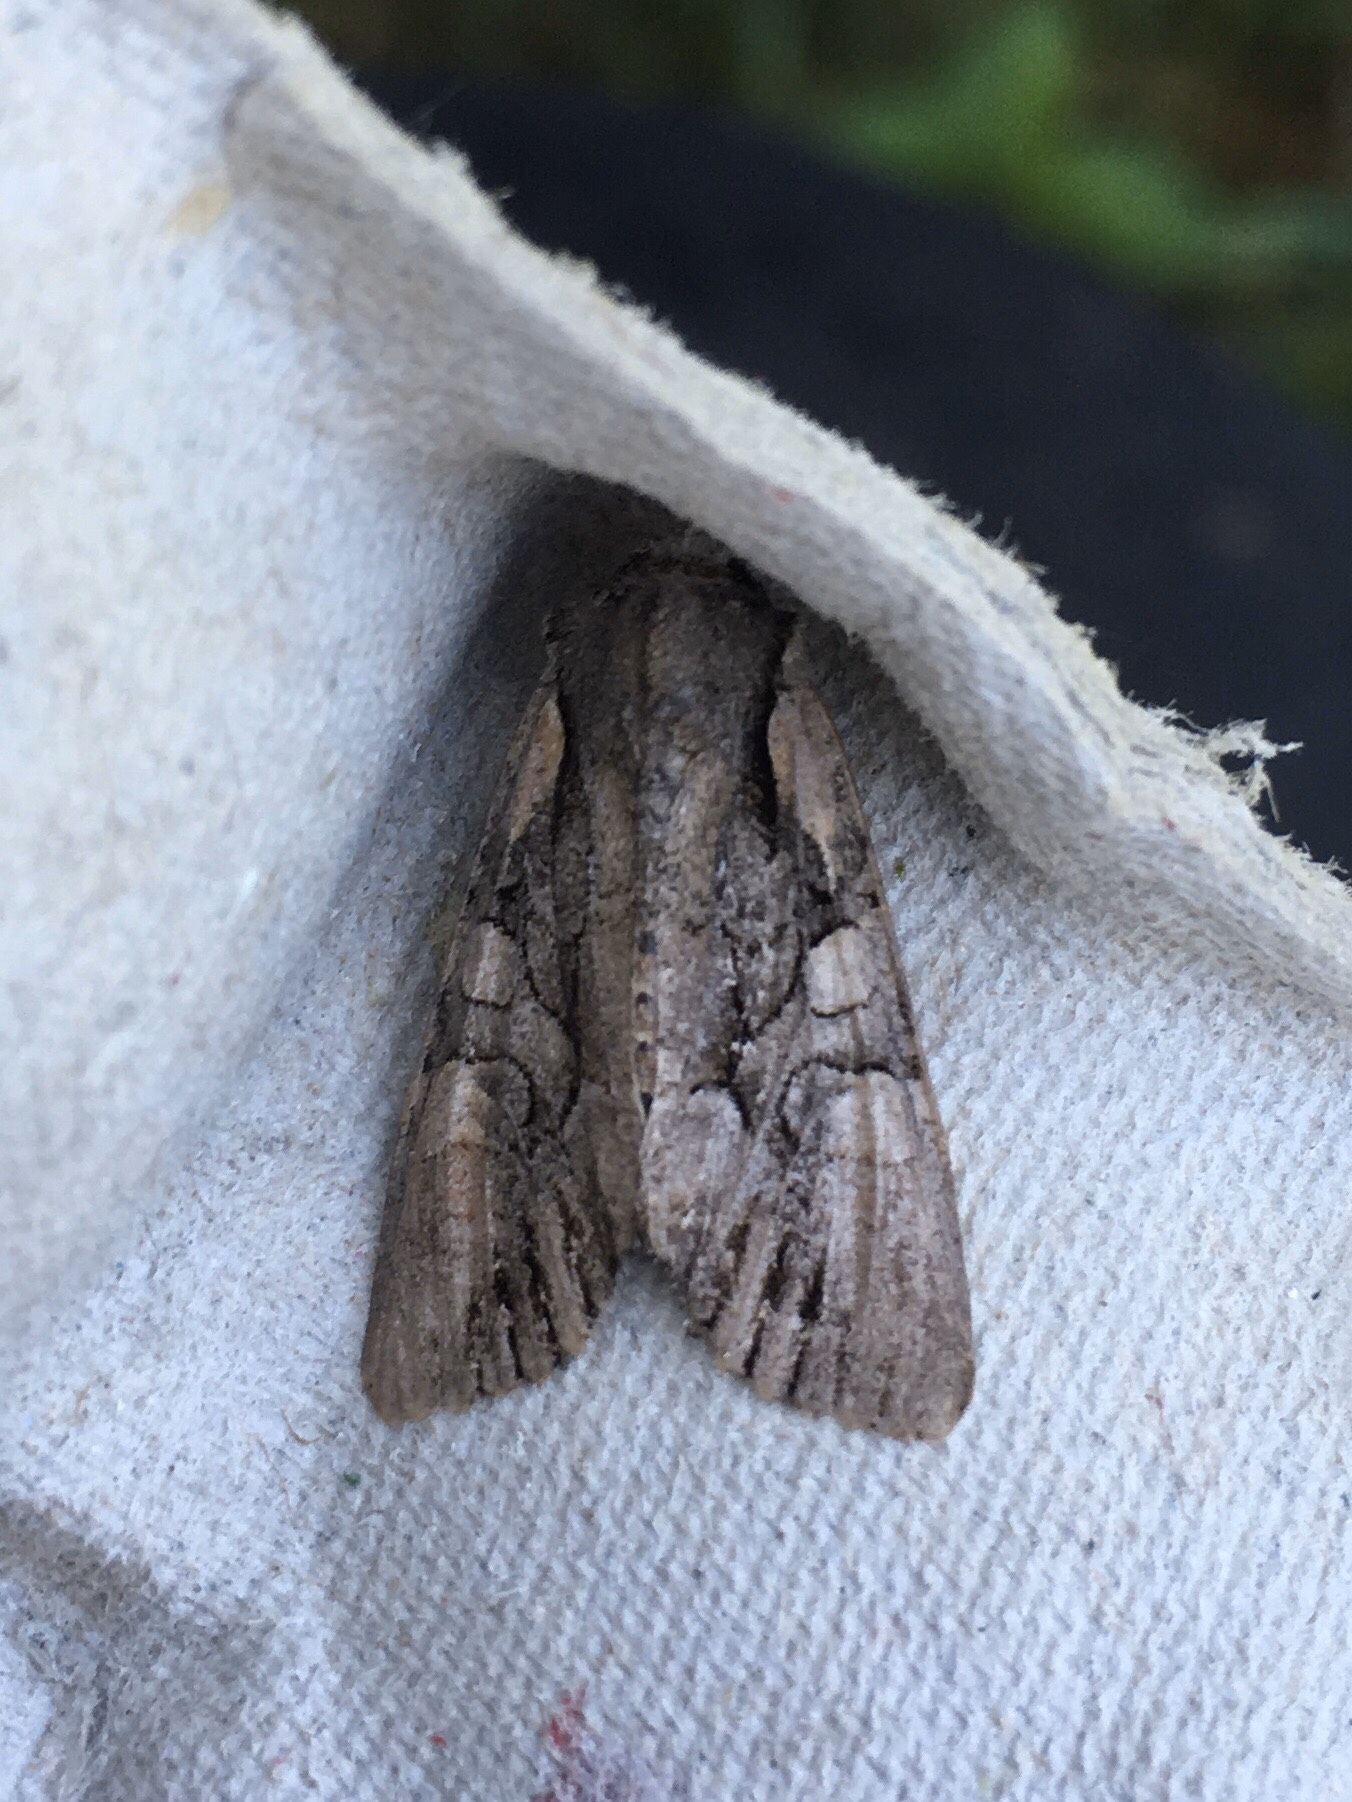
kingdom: Animalia
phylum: Arthropoda
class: Insecta
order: Lepidoptera
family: Noctuidae
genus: Lacanobia
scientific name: Lacanobia subjuncta
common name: Speckled cutworm moth
